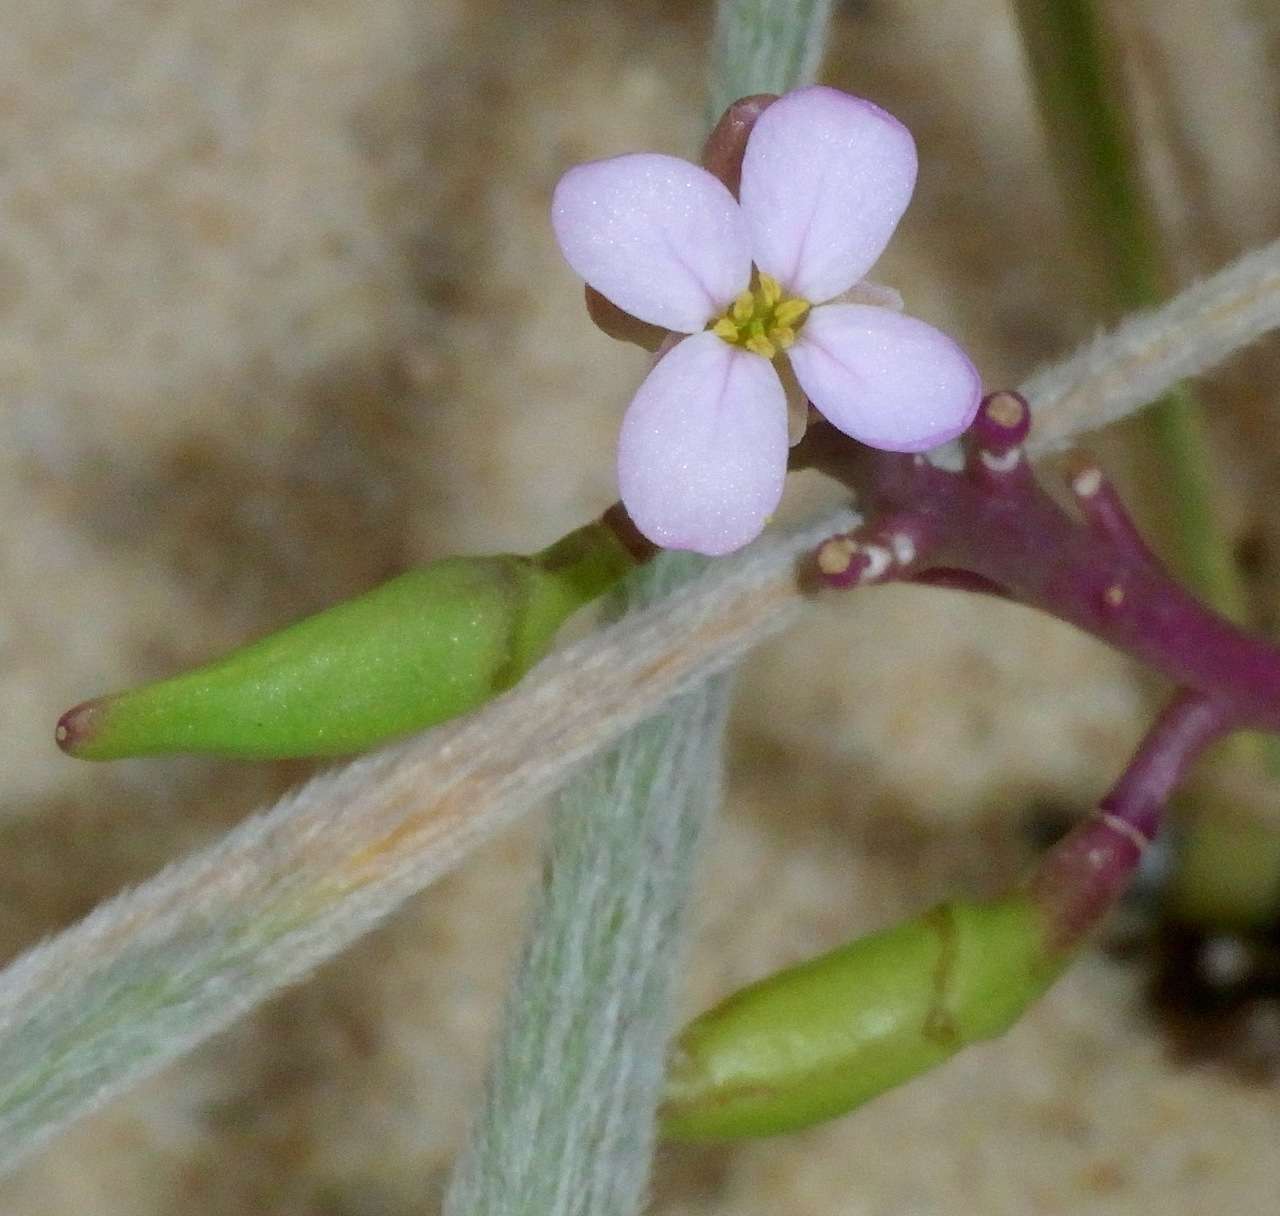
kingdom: Plantae
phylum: Tracheophyta
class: Magnoliopsida
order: Brassicales
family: Brassicaceae
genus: Cakile
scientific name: Cakile maritima
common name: Sea rocket
